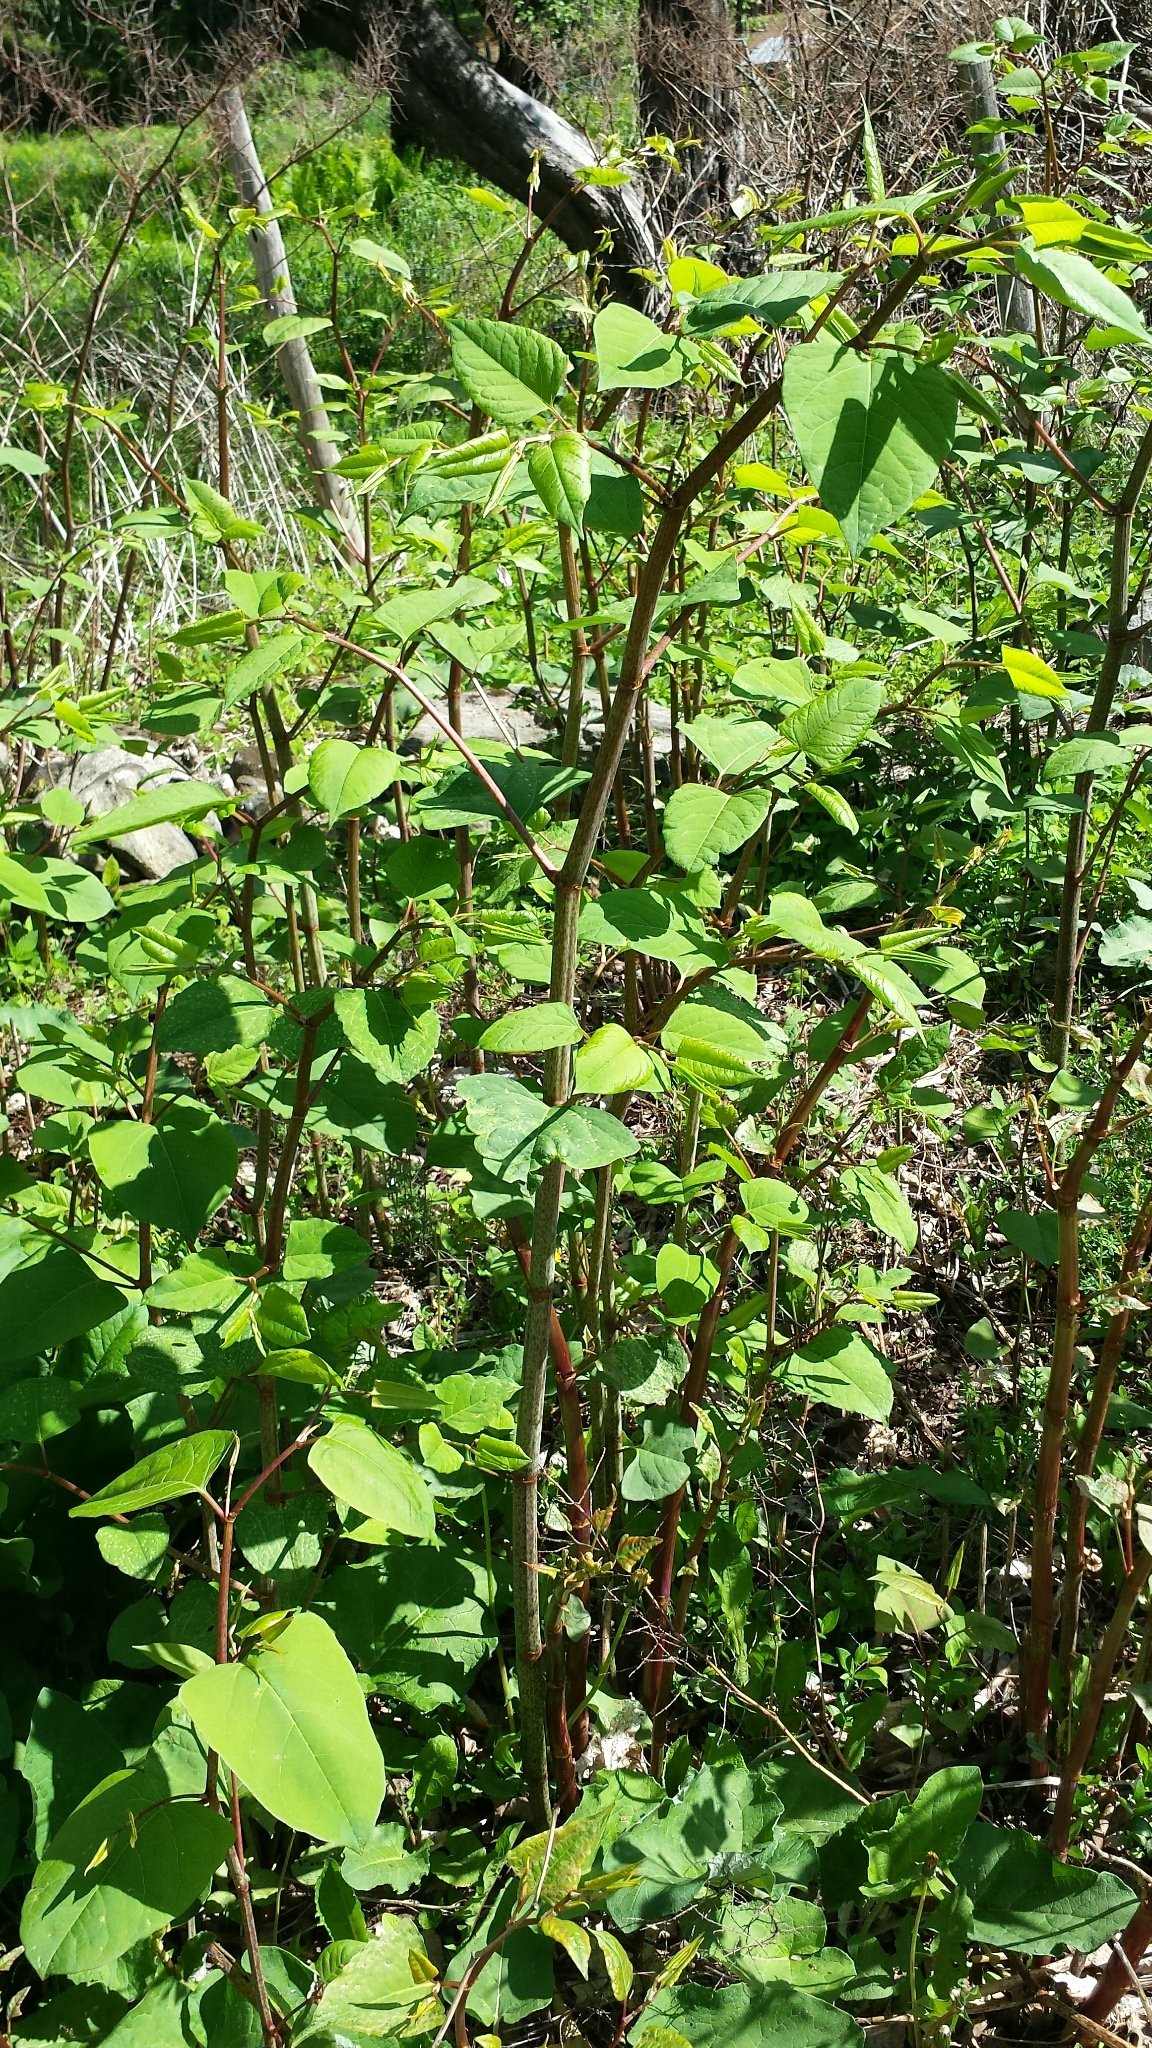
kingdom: Plantae
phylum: Tracheophyta
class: Magnoliopsida
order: Caryophyllales
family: Polygonaceae
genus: Reynoutria
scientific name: Reynoutria japonica
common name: Japanese knotweed
